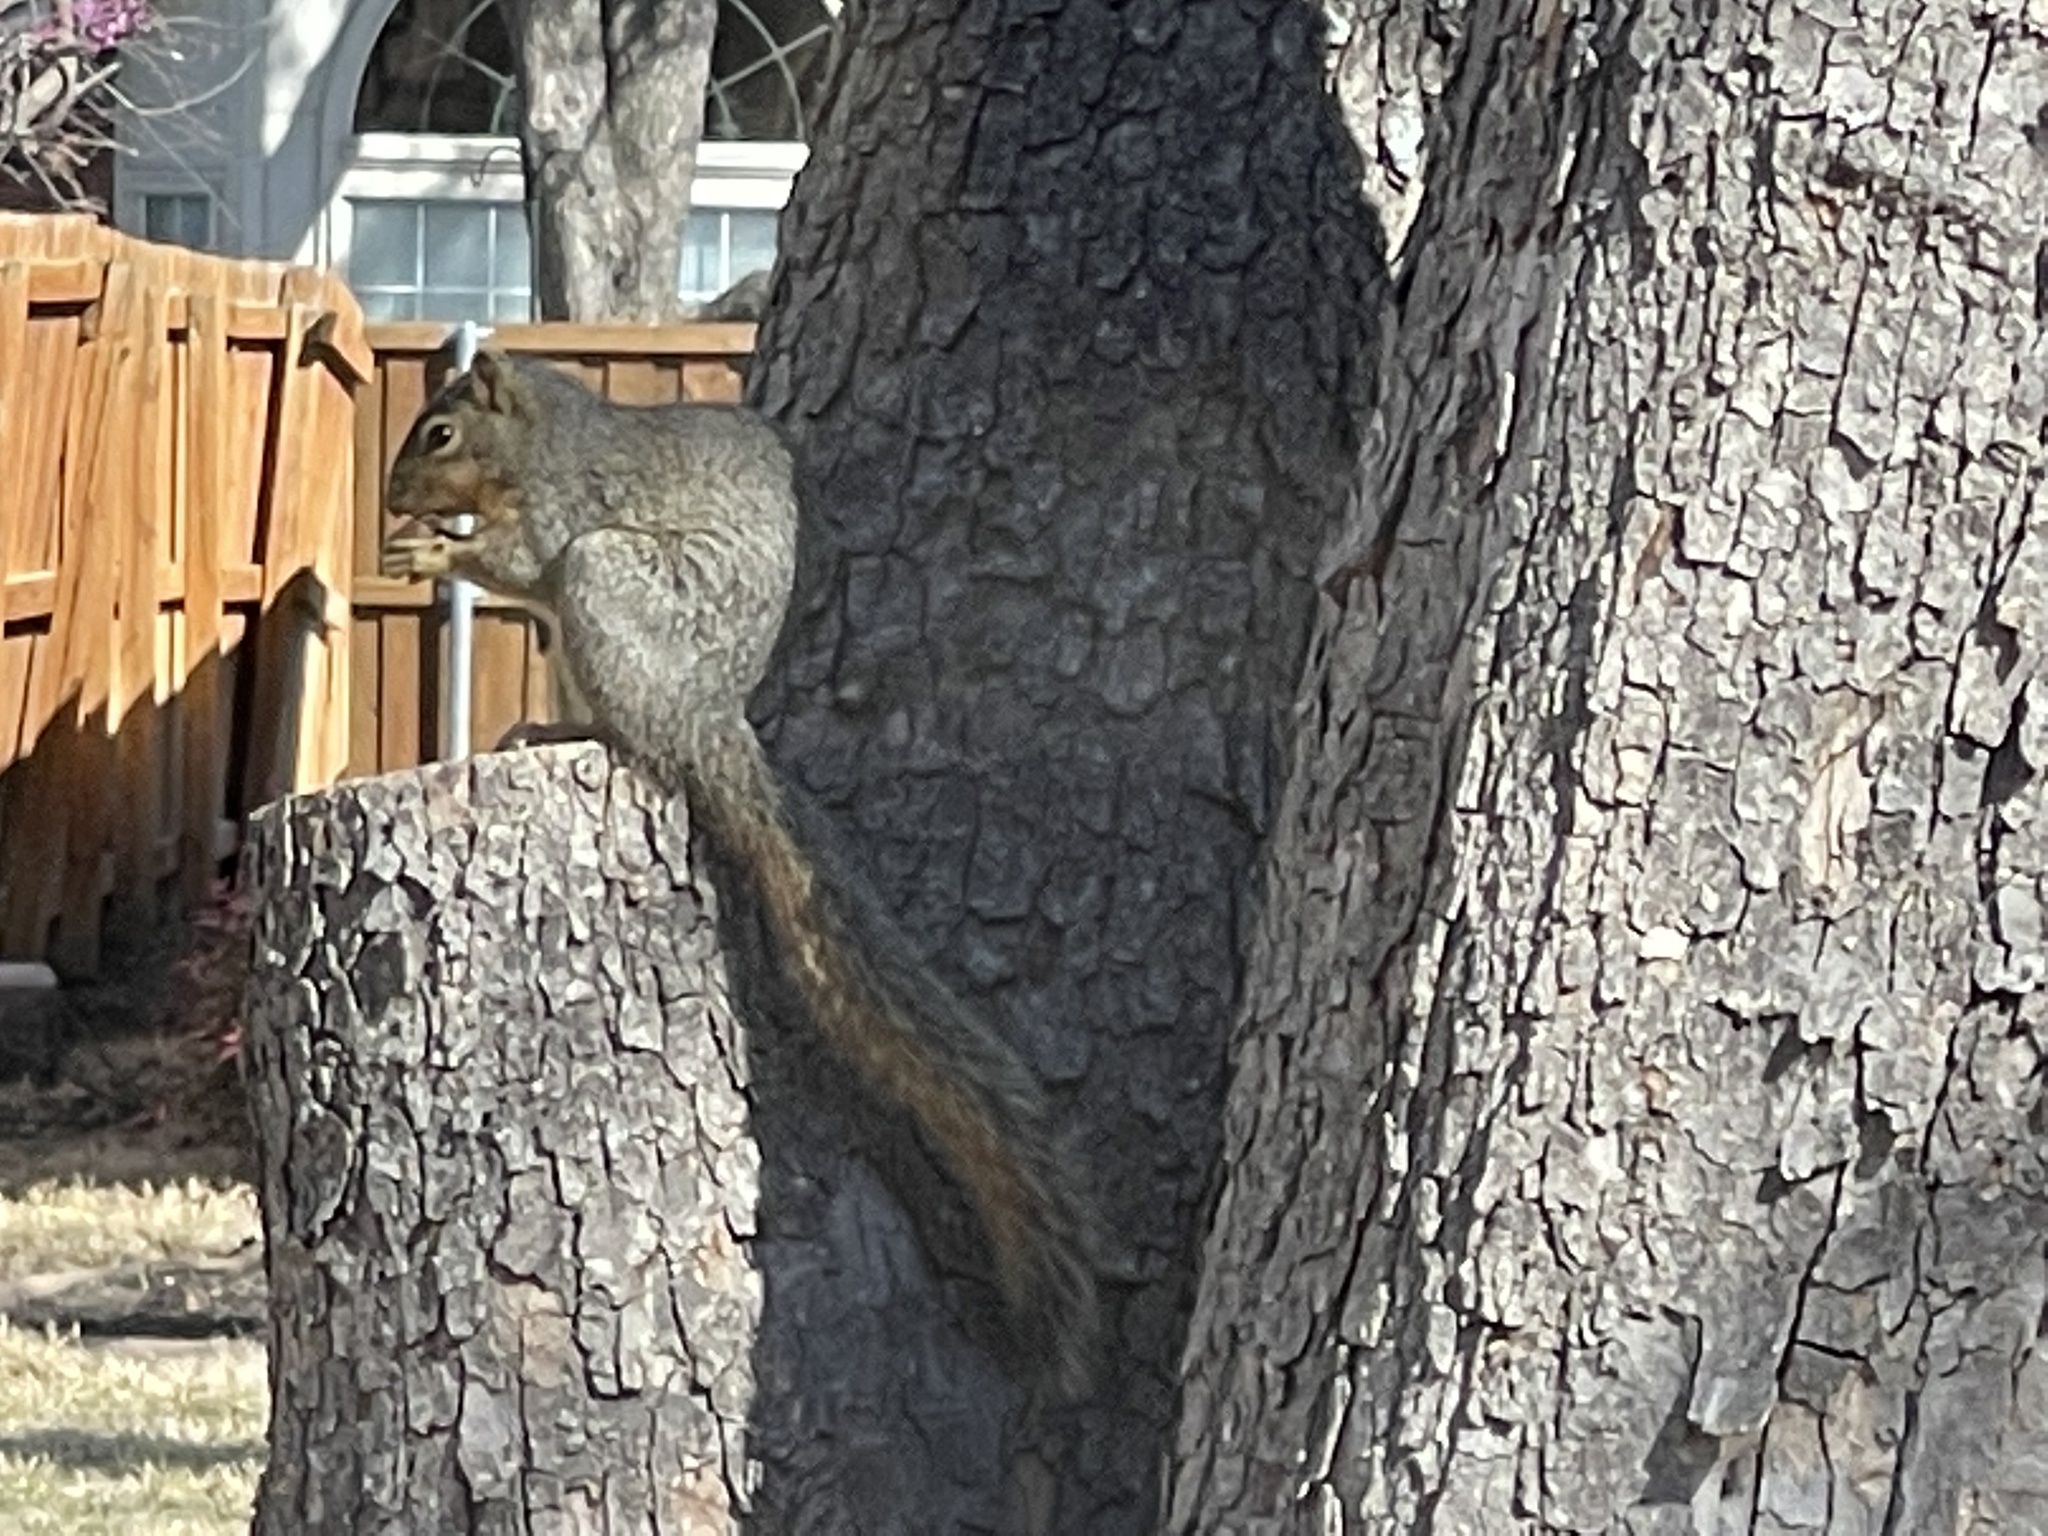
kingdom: Animalia
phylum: Chordata
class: Mammalia
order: Rodentia
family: Sciuridae
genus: Sciurus
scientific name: Sciurus niger
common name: Fox squirrel
